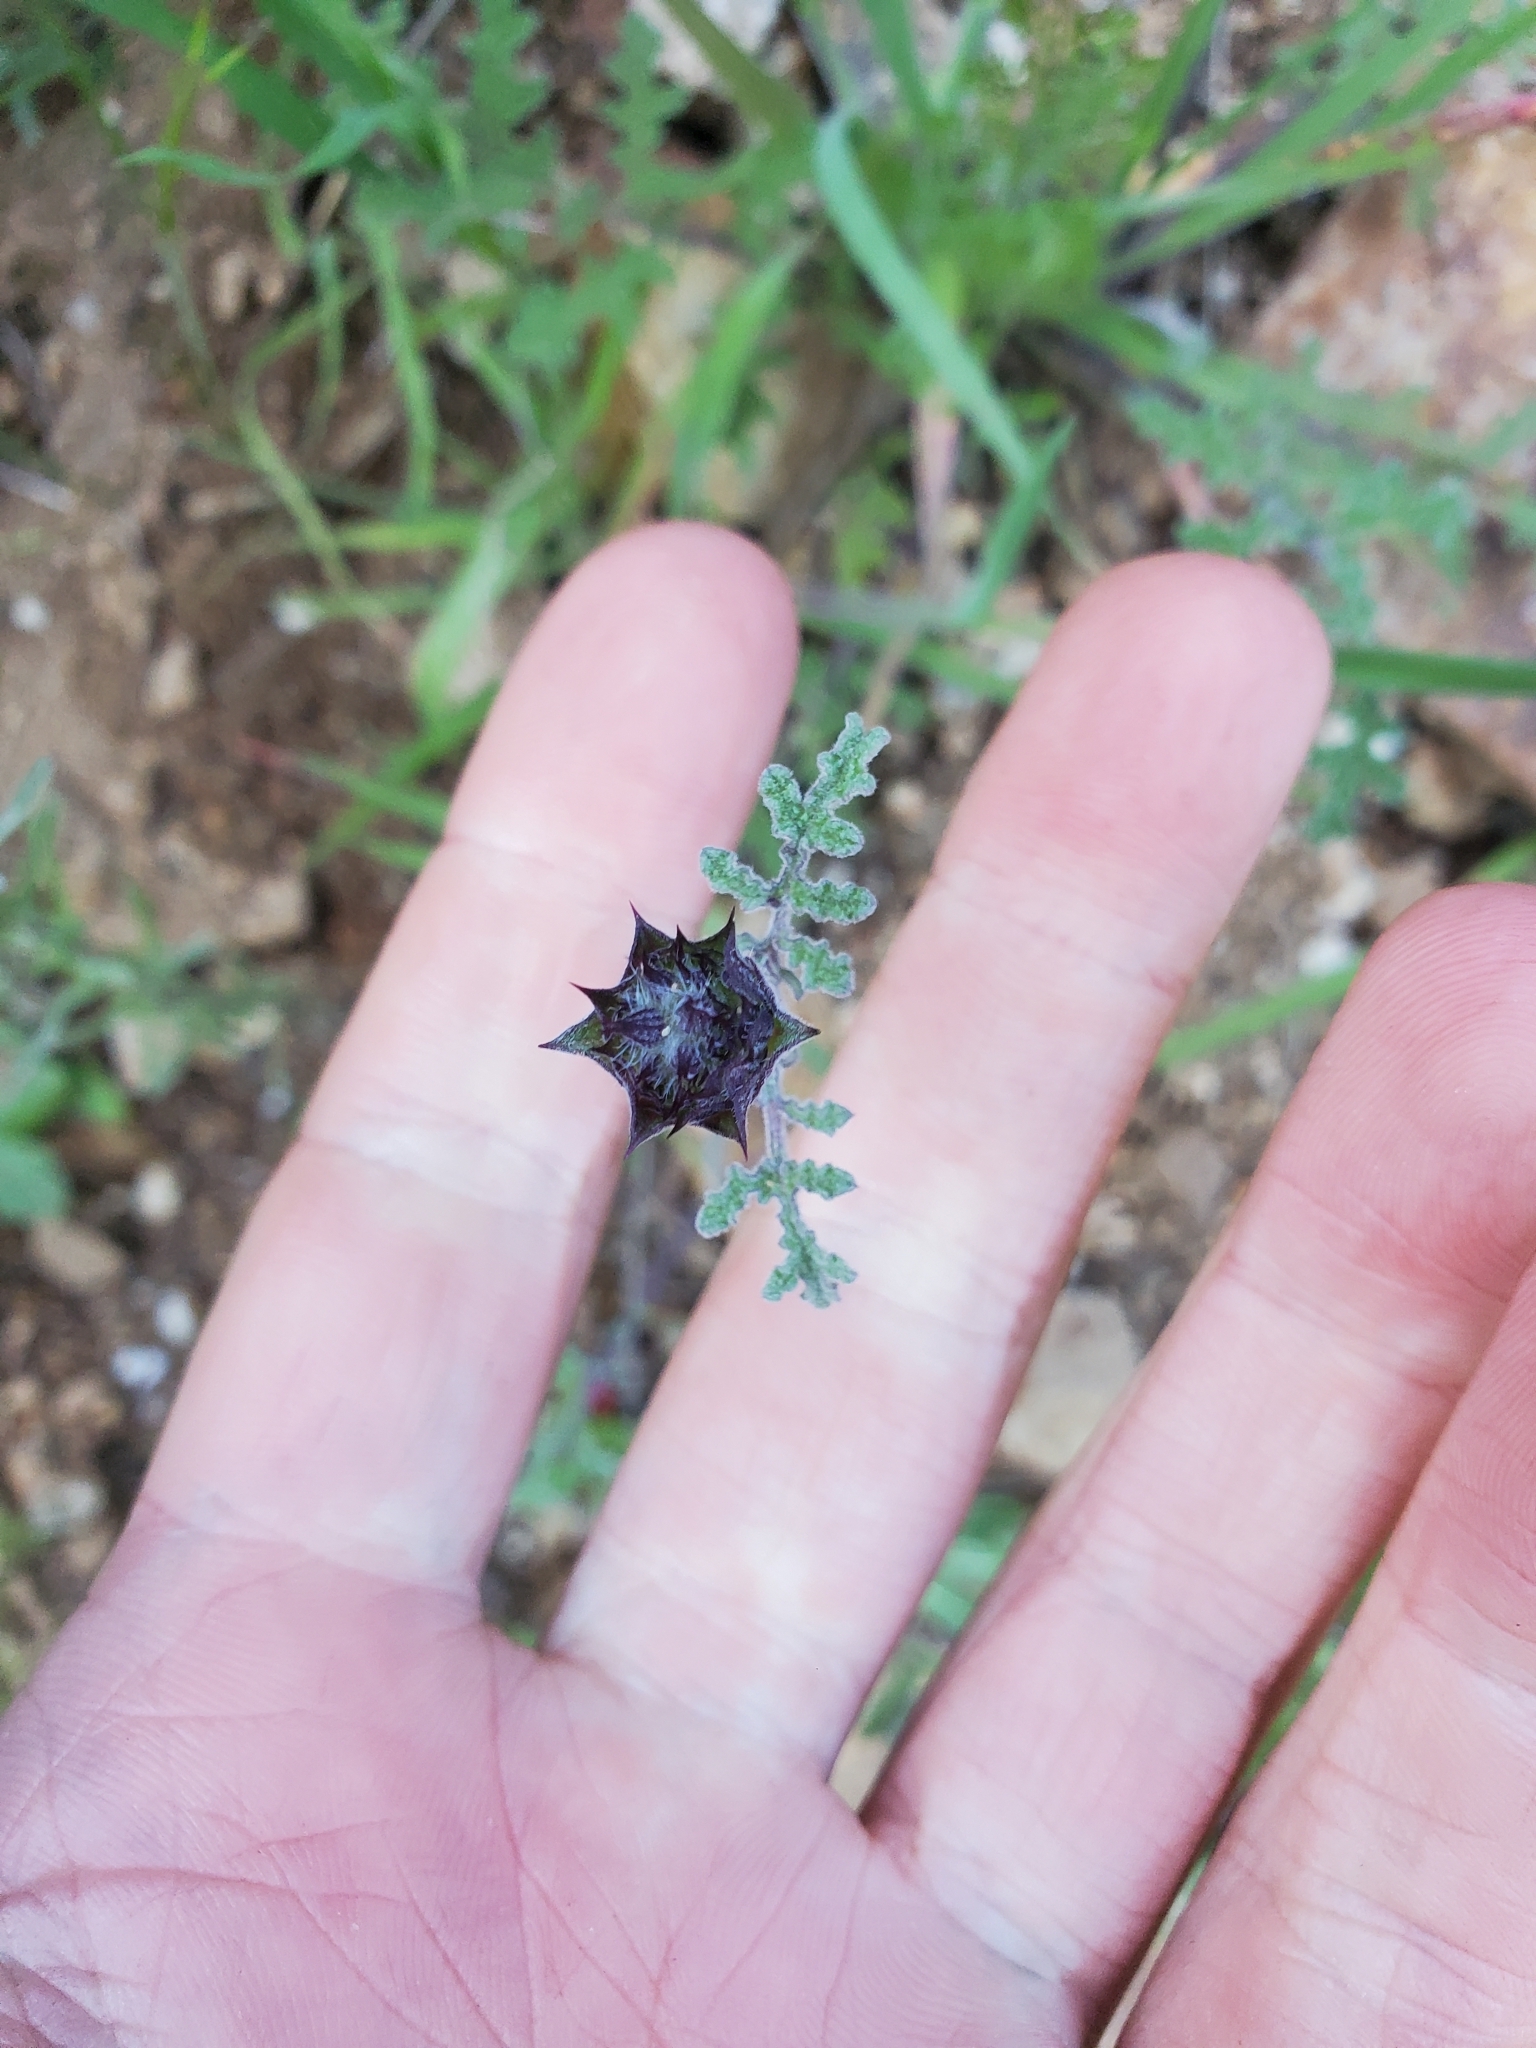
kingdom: Plantae
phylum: Tracheophyta
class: Magnoliopsida
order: Lamiales
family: Lamiaceae
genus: Salvia
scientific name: Salvia columbariae
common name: Chia
